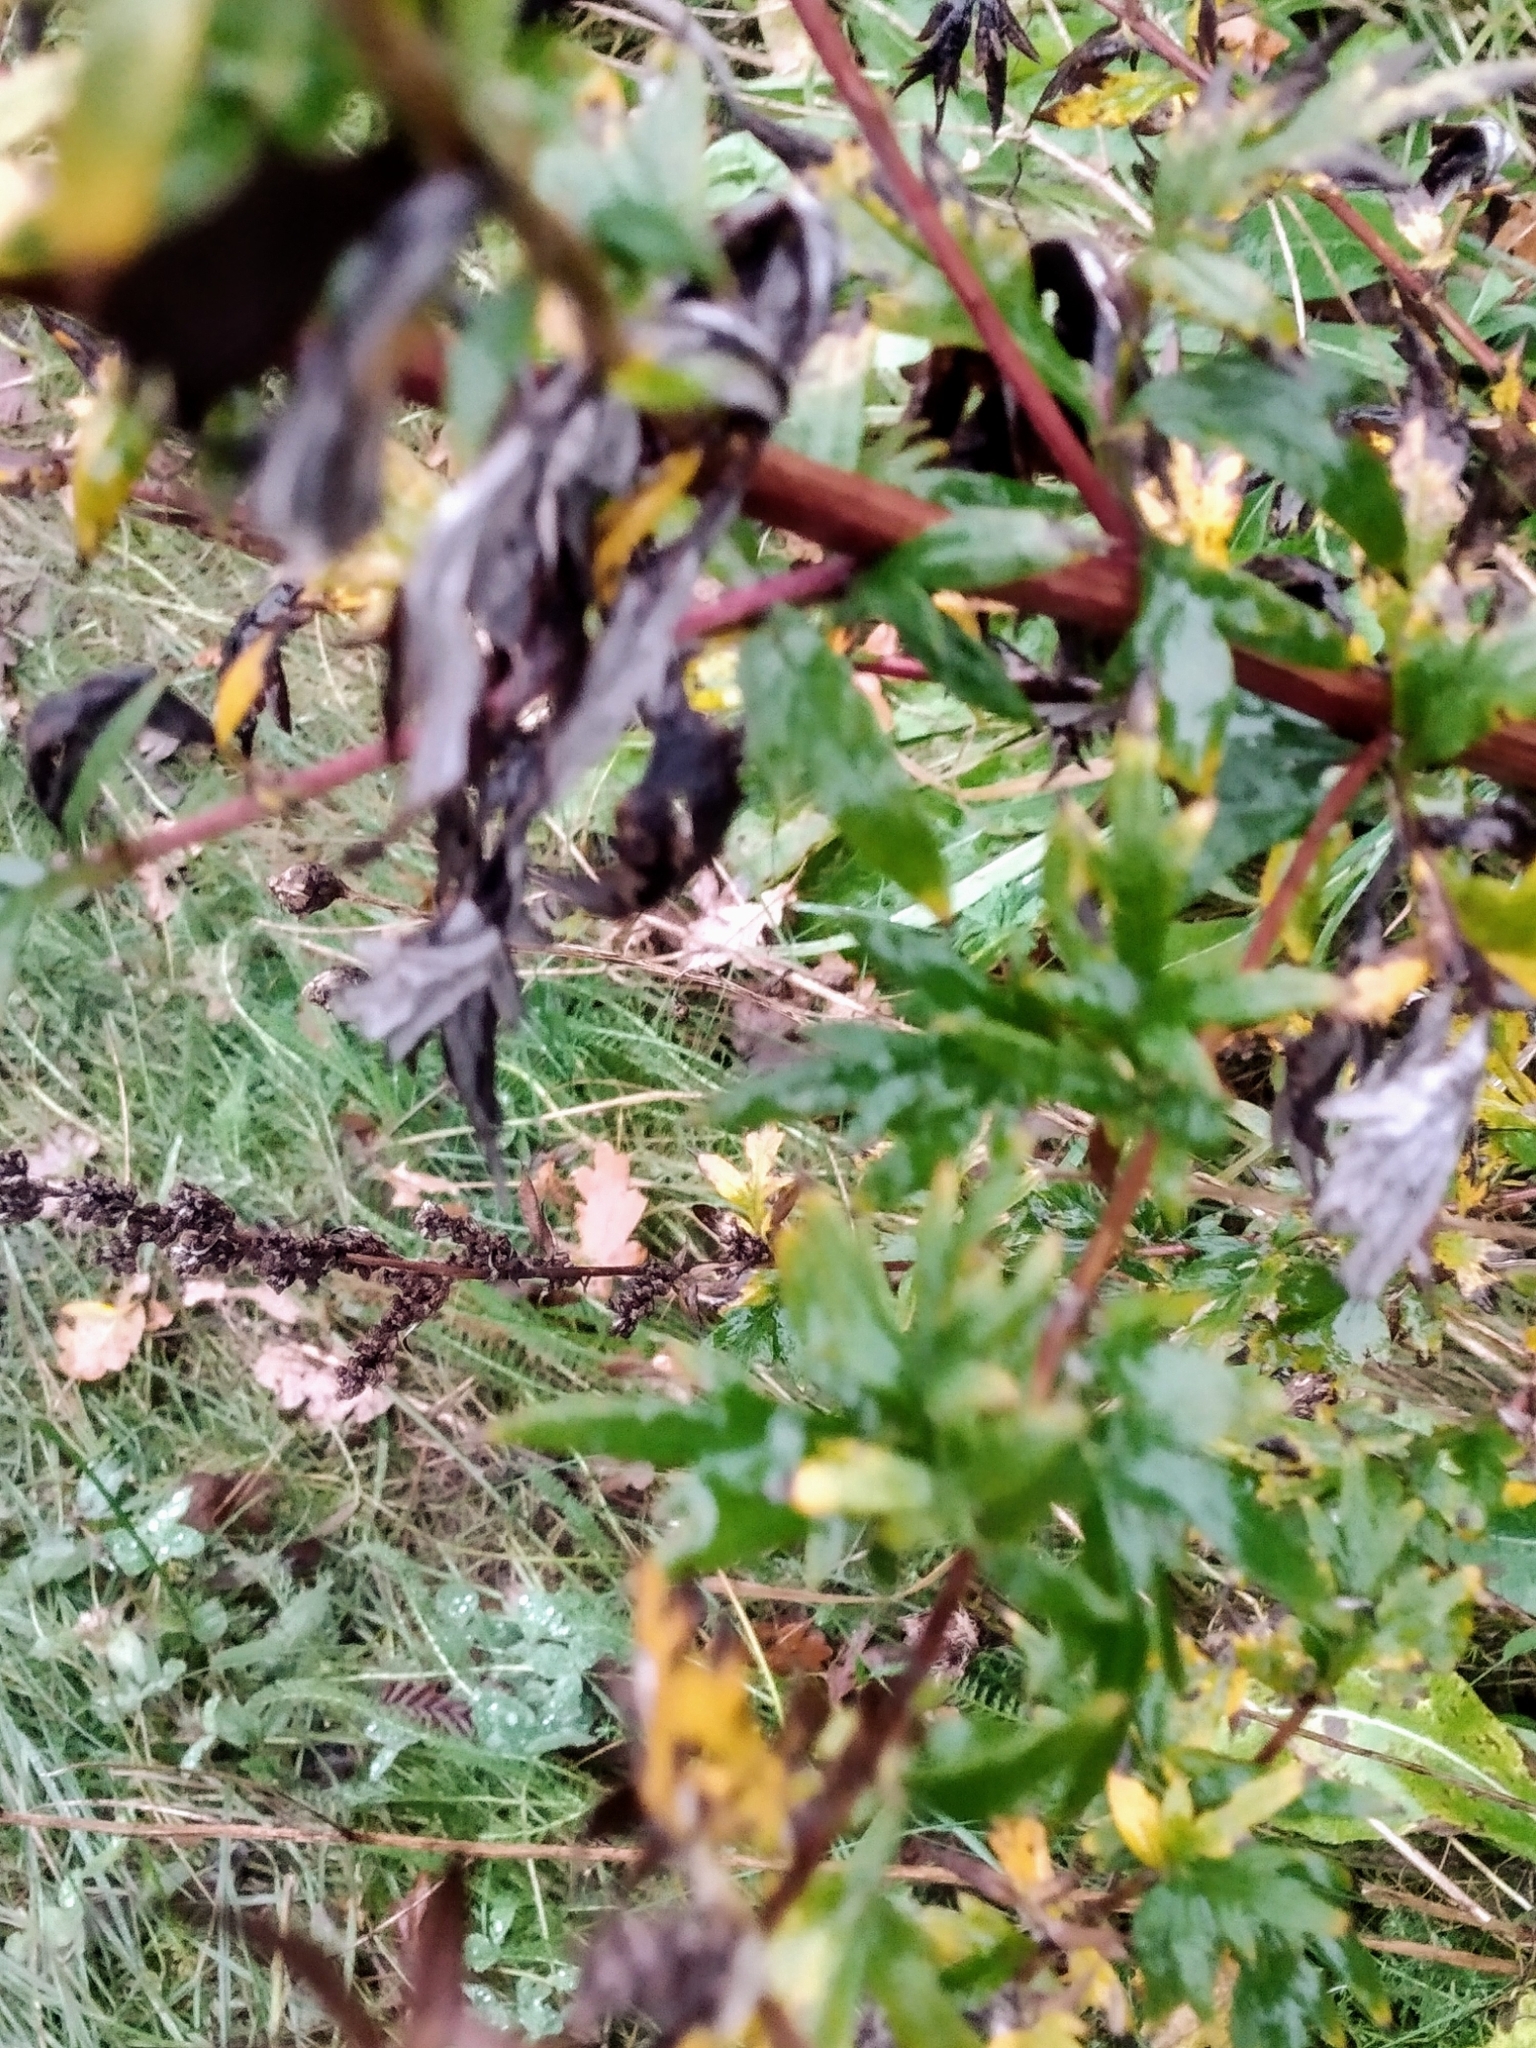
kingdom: Plantae
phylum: Tracheophyta
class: Magnoliopsida
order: Asterales
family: Asteraceae
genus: Artemisia
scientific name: Artemisia vulgaris
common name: Mugwort
